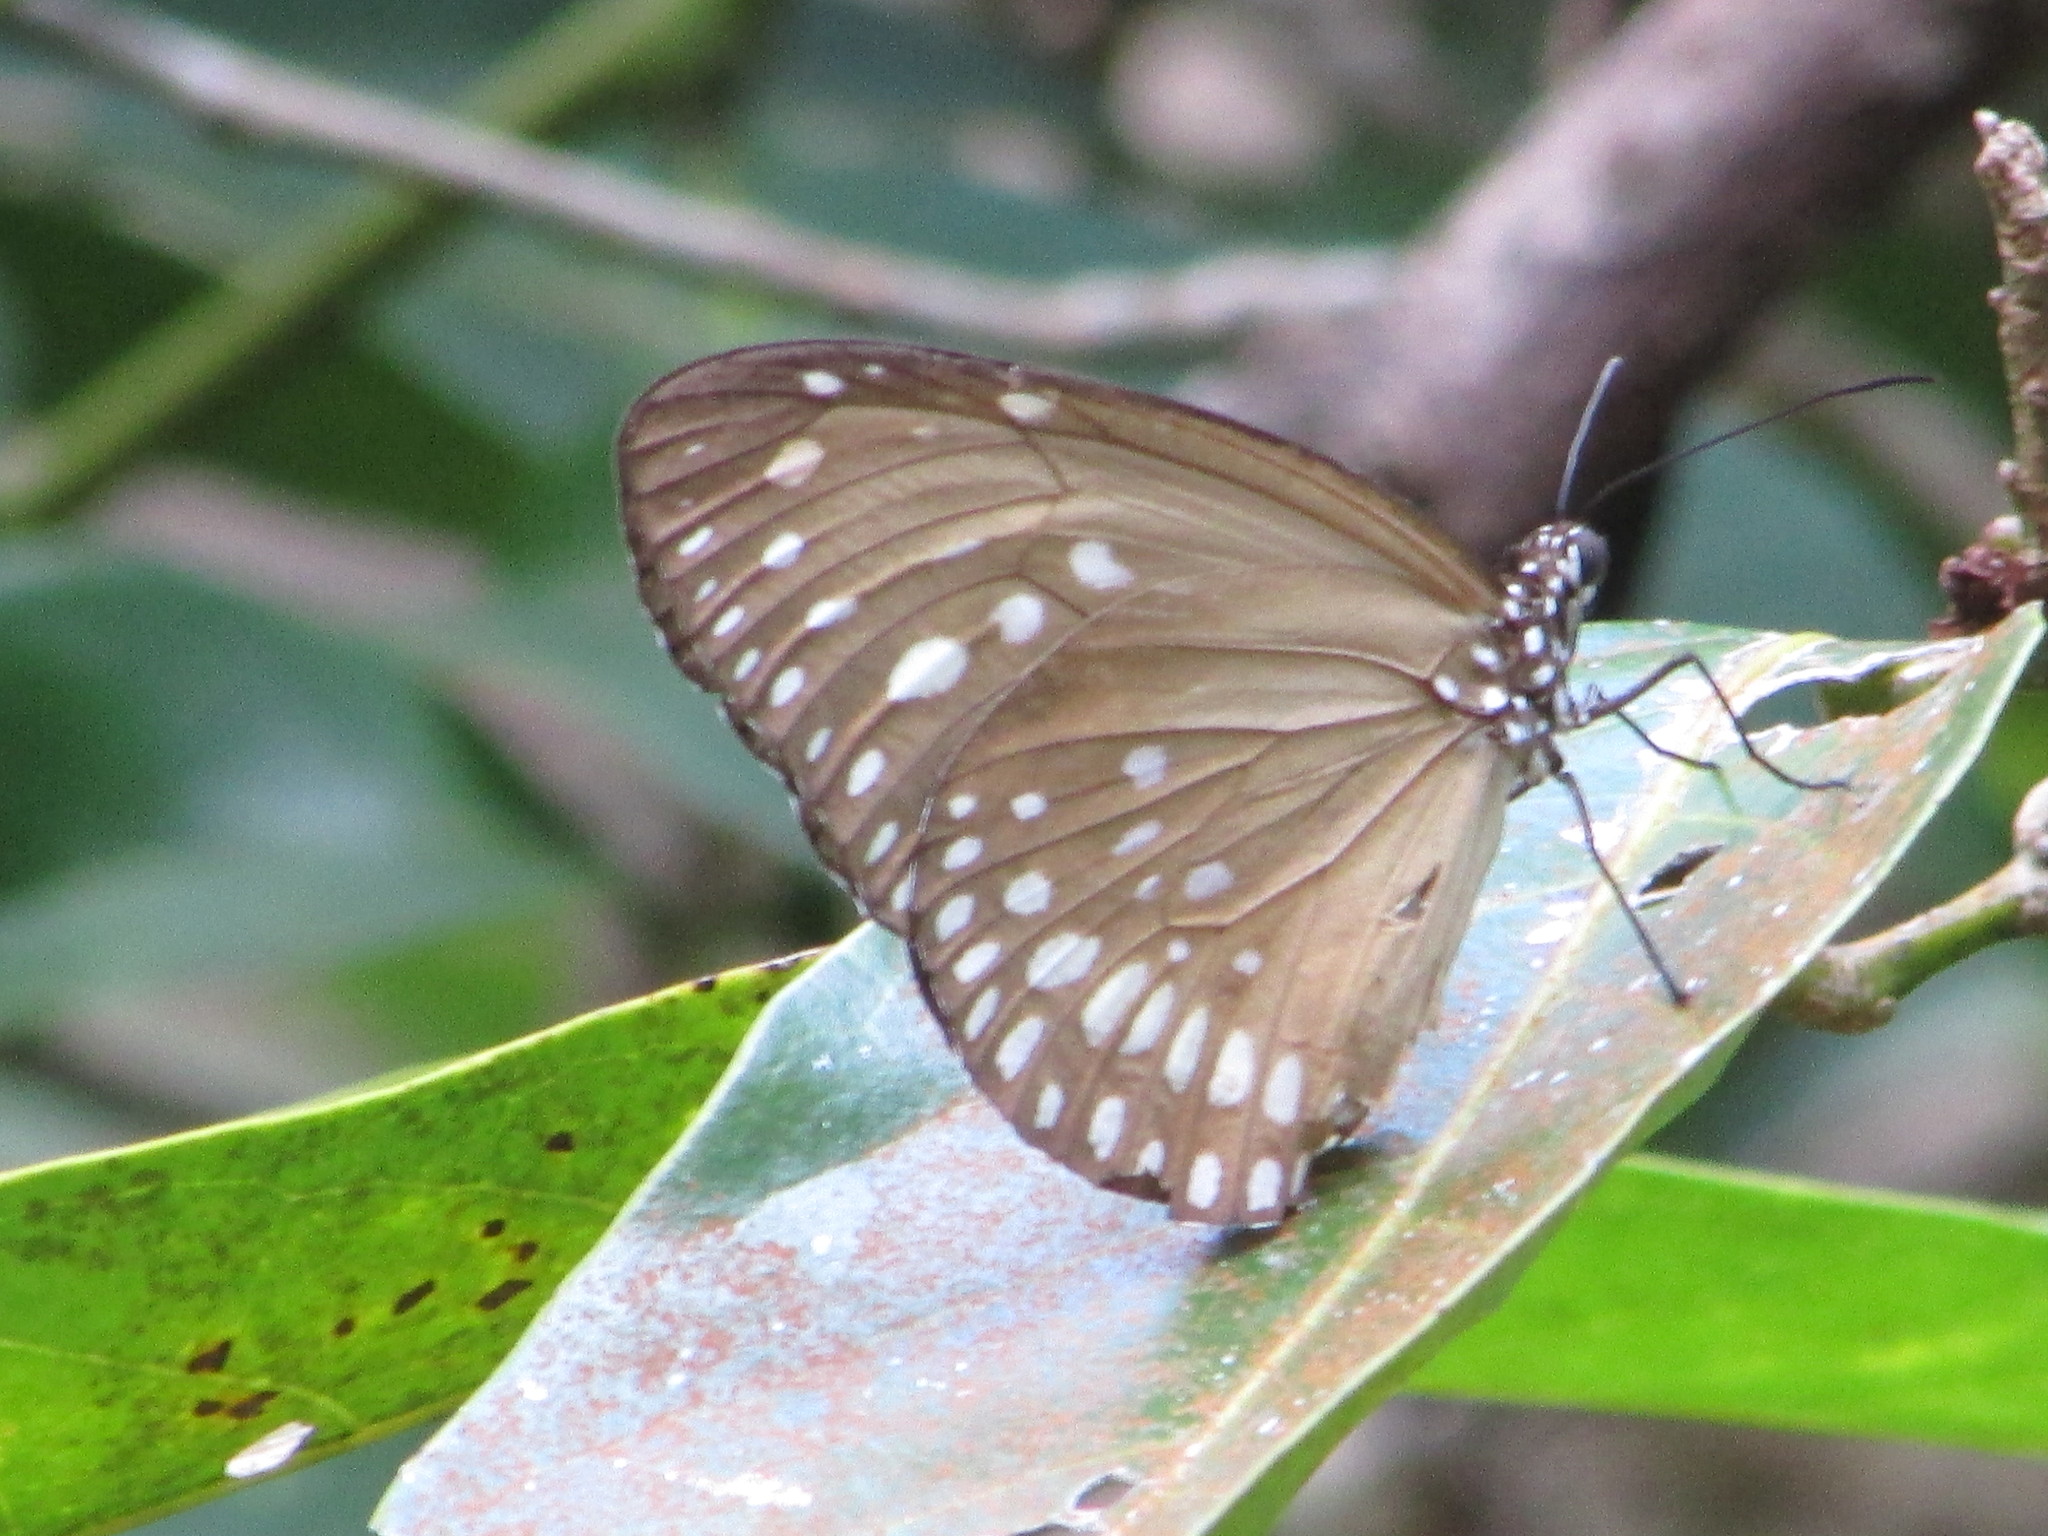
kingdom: Animalia
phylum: Arthropoda
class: Insecta
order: Lepidoptera
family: Nymphalidae
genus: Euploea
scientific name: Euploea core
